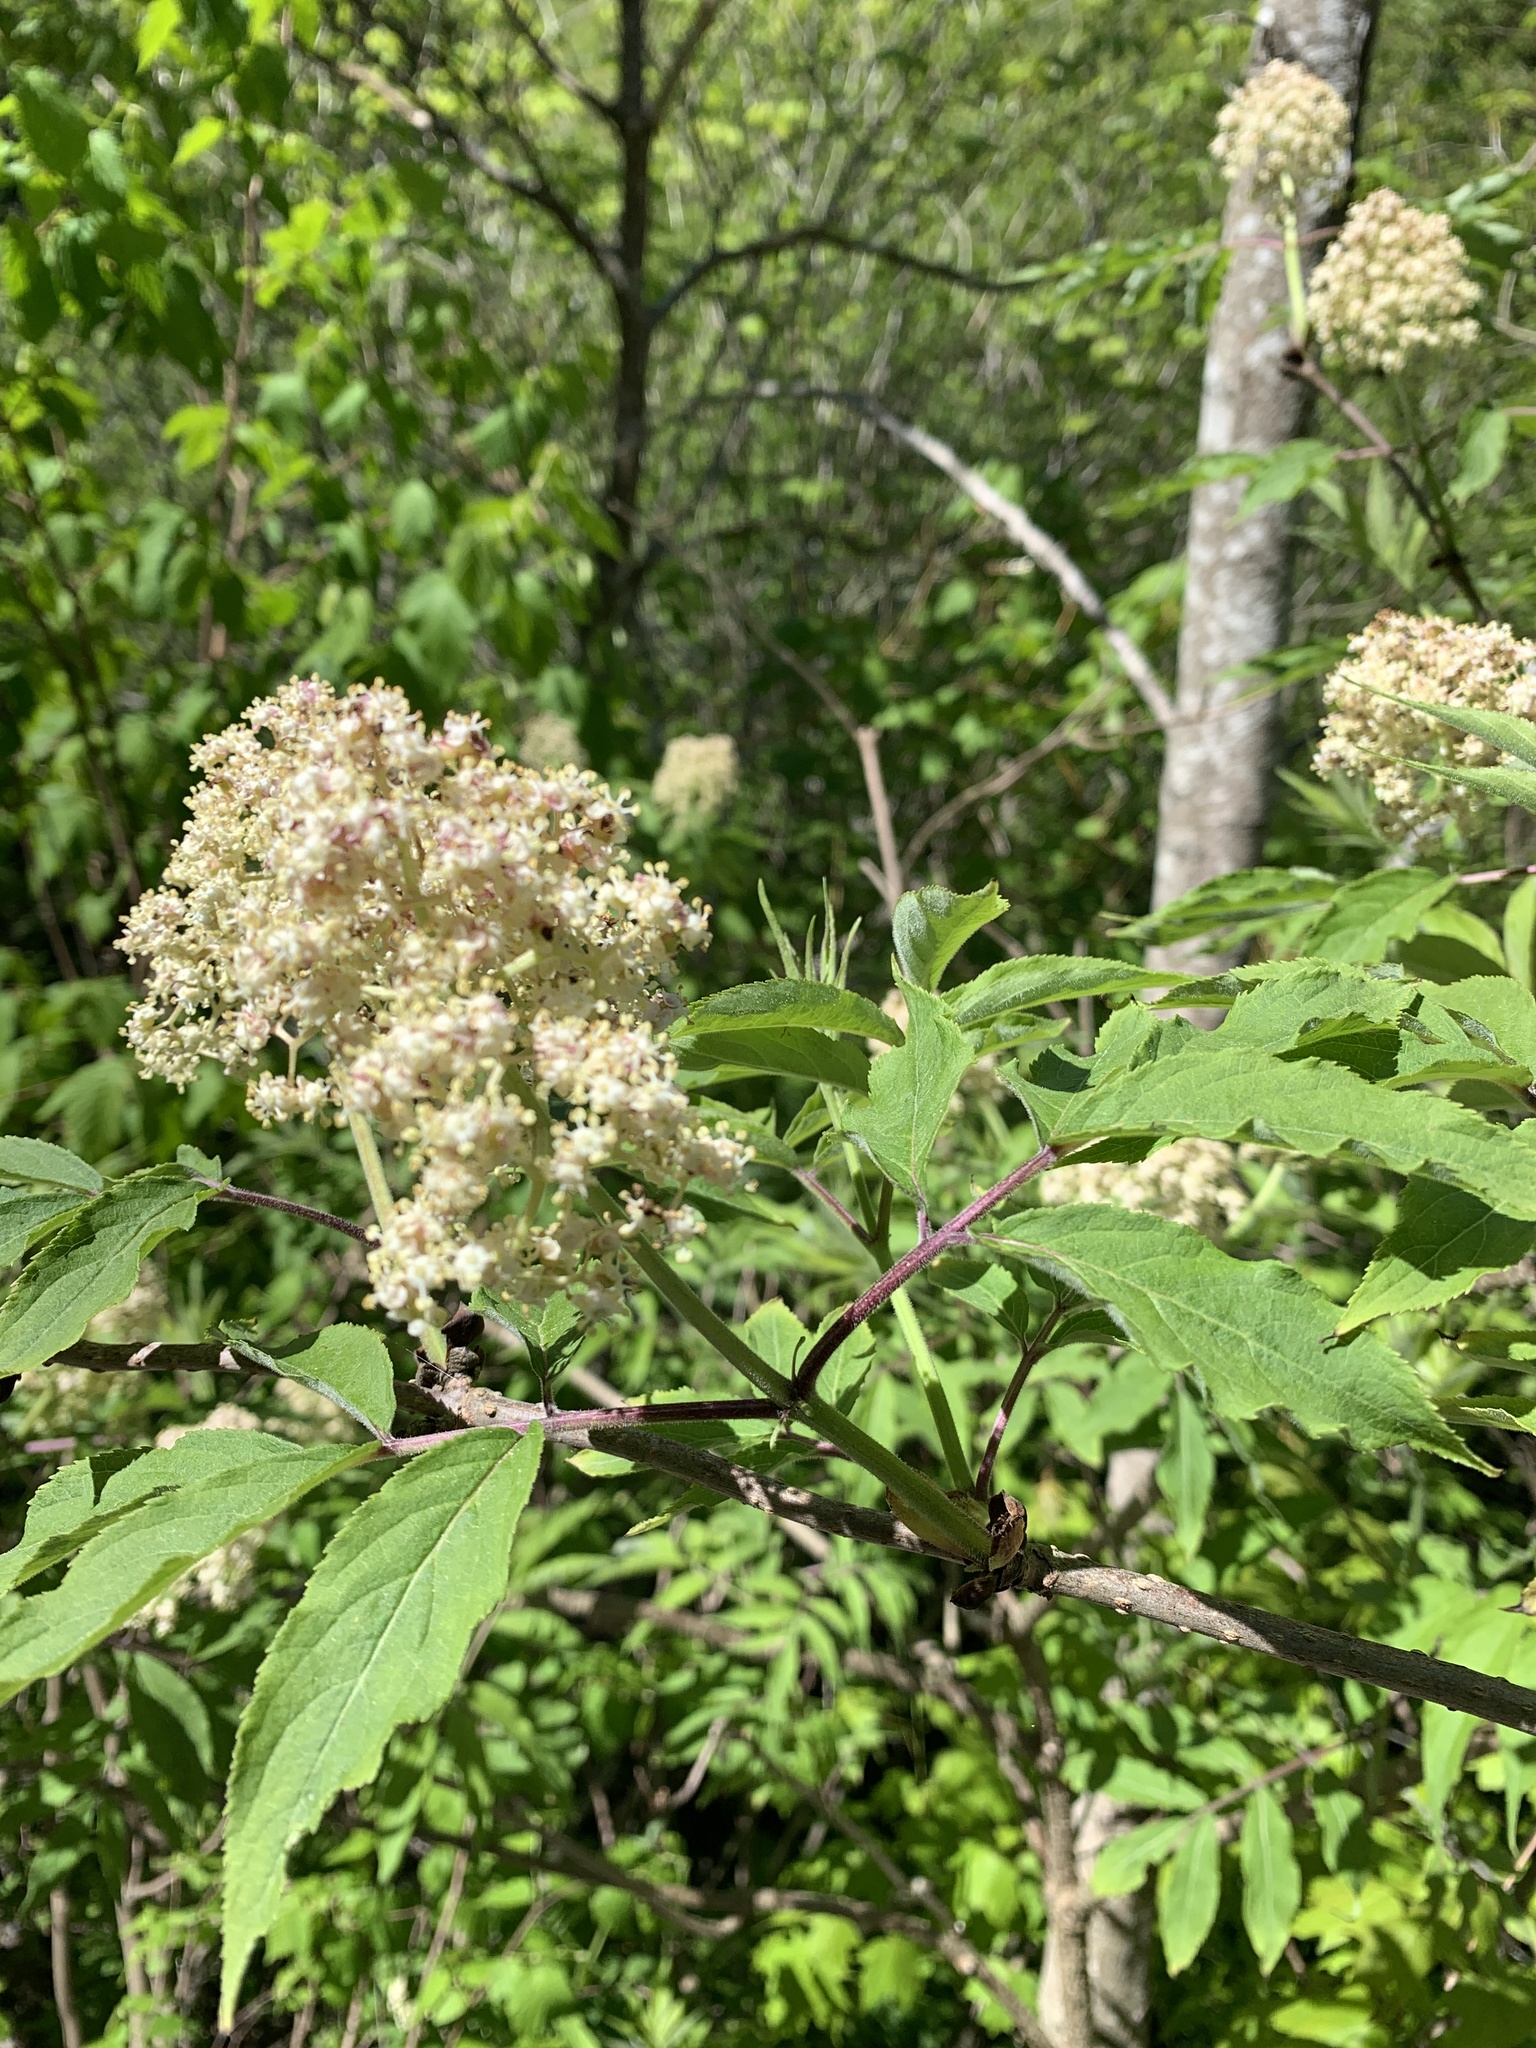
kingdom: Plantae
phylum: Tracheophyta
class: Magnoliopsida
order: Dipsacales
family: Viburnaceae
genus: Sambucus
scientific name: Sambucus racemosa
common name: Red-berried elder
